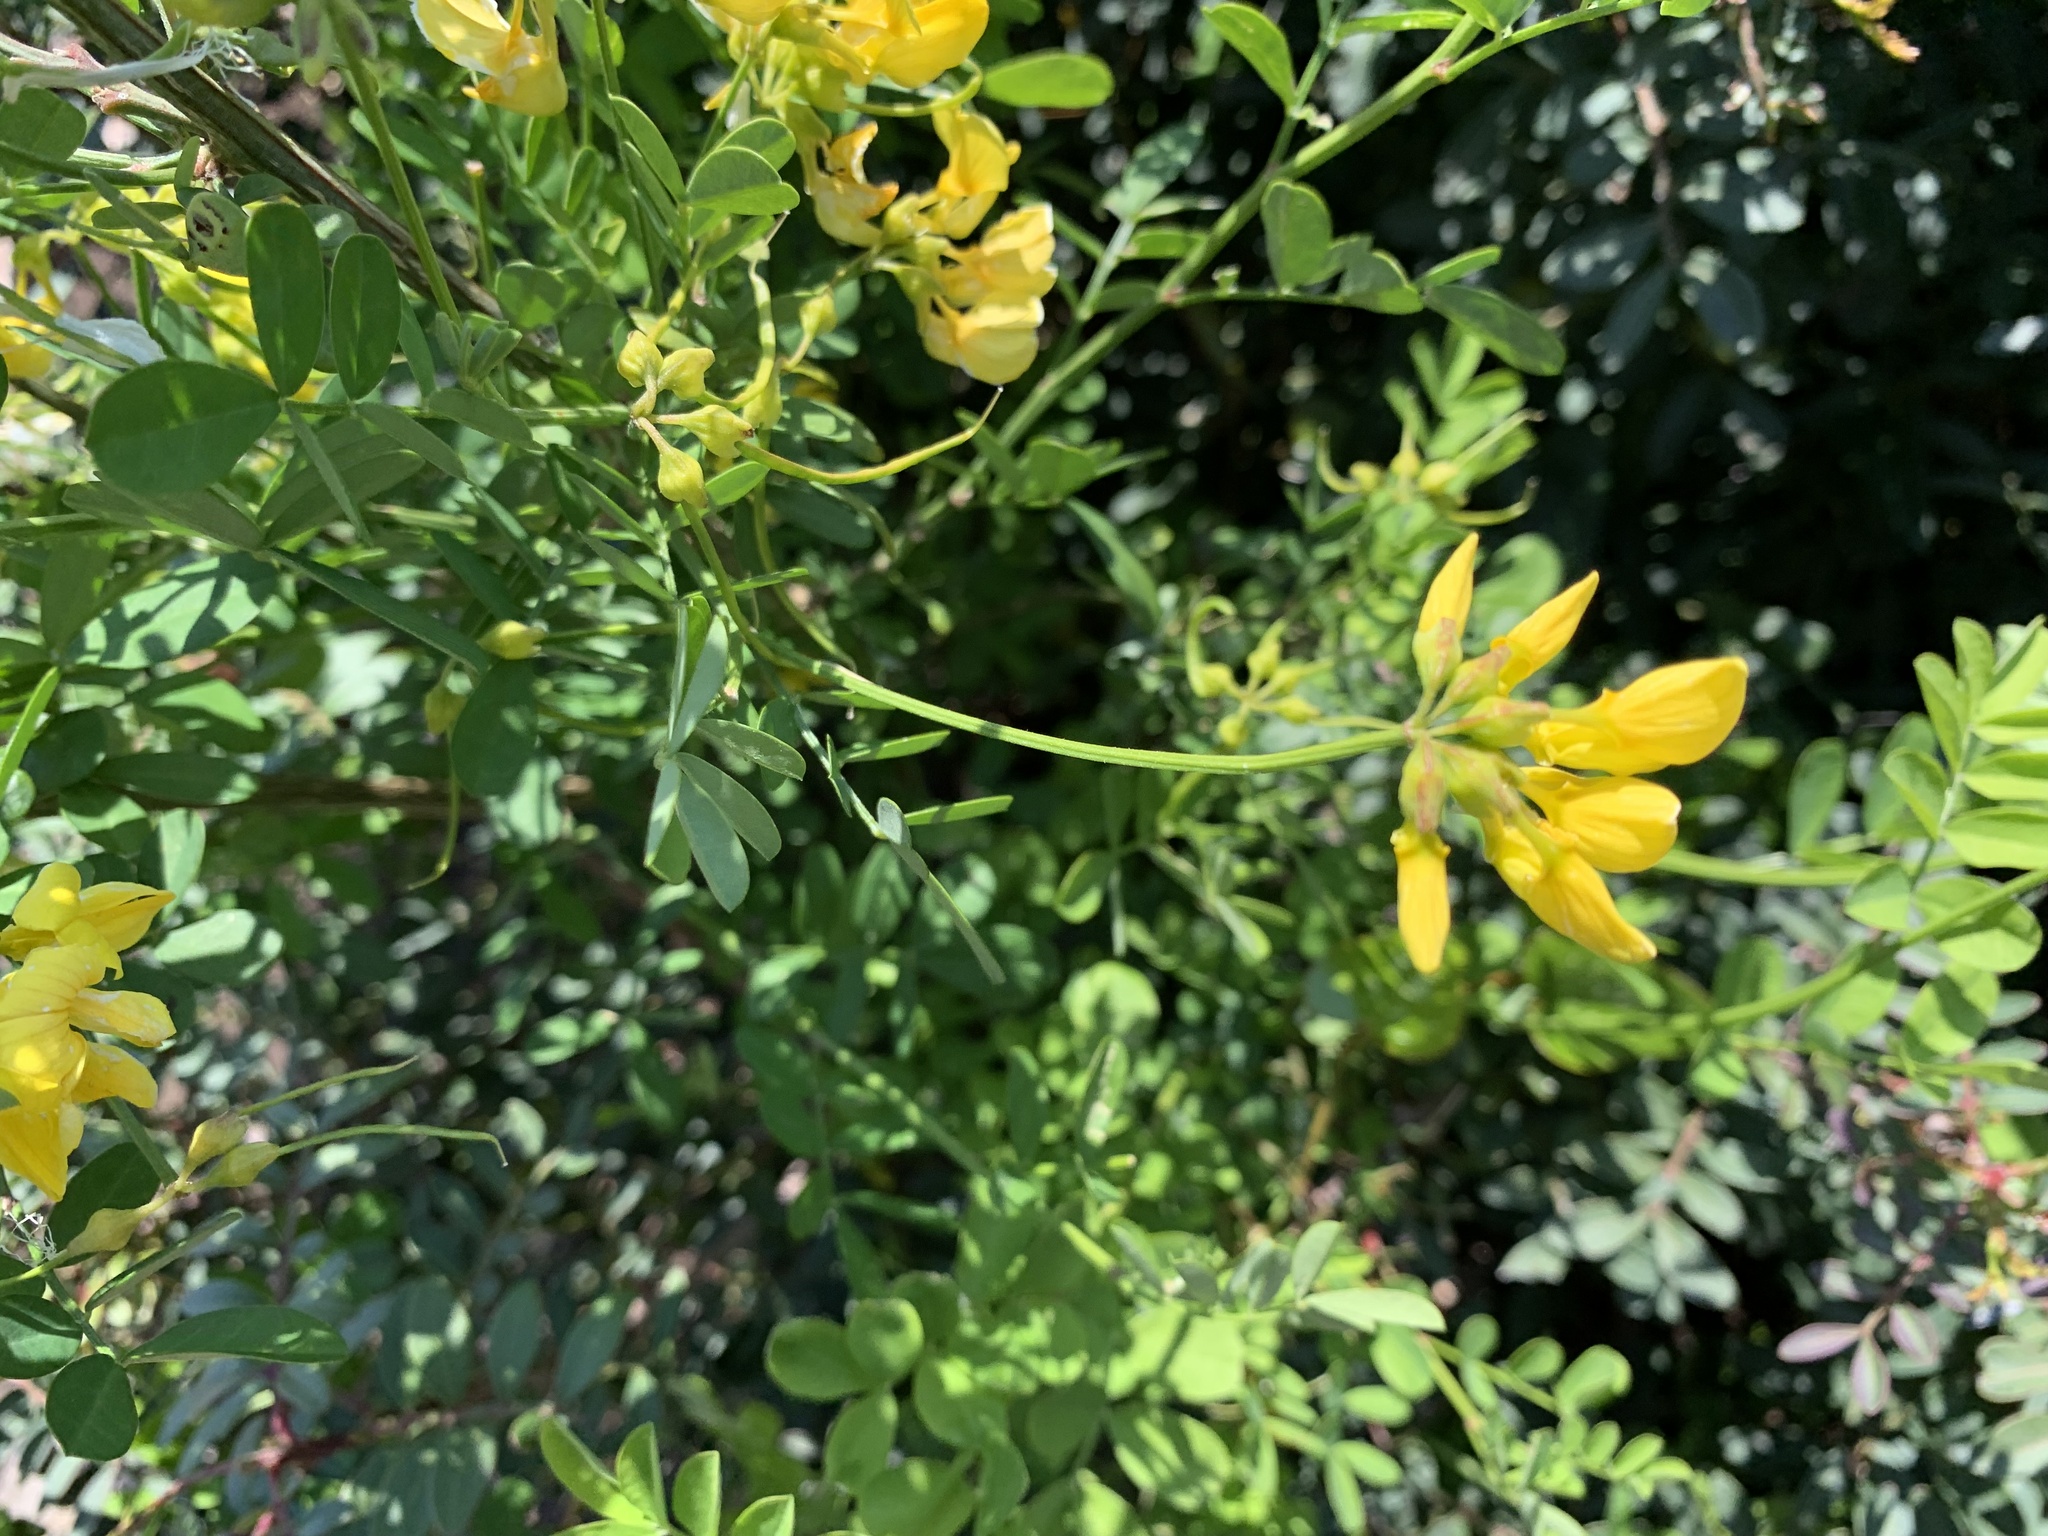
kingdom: Plantae
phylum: Tracheophyta
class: Magnoliopsida
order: Fabales
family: Fabaceae
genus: Hippocrepis
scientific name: Hippocrepis emerus
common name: Scorpion senna
